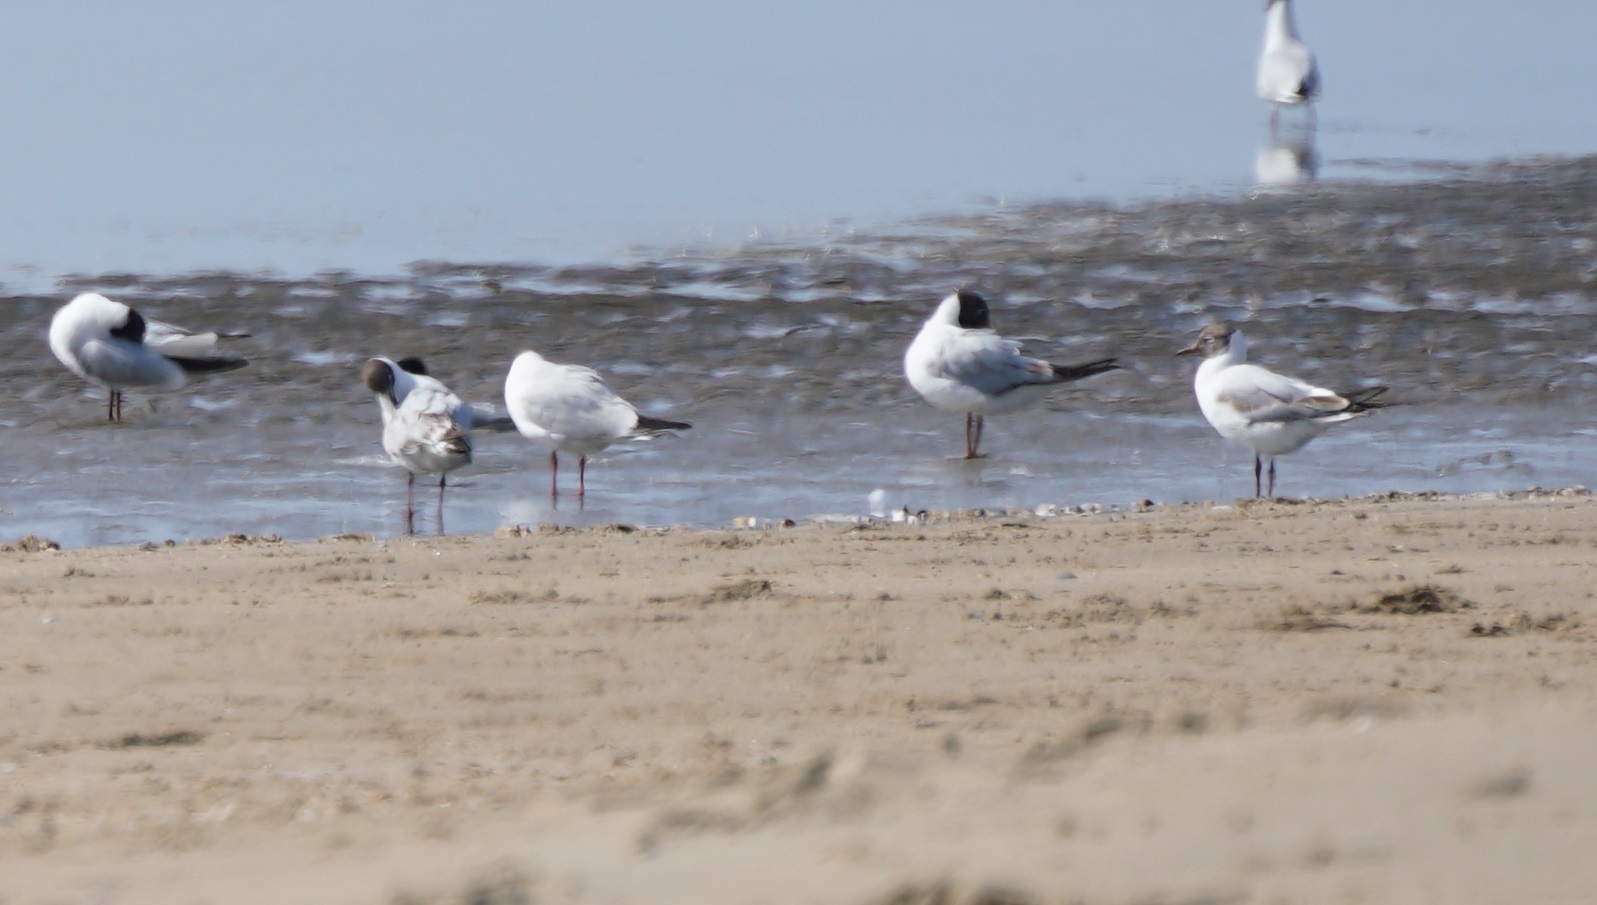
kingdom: Animalia
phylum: Chordata
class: Aves
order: Charadriiformes
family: Laridae
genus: Chroicocephalus
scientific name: Chroicocephalus ridibundus
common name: Black-headed gull
